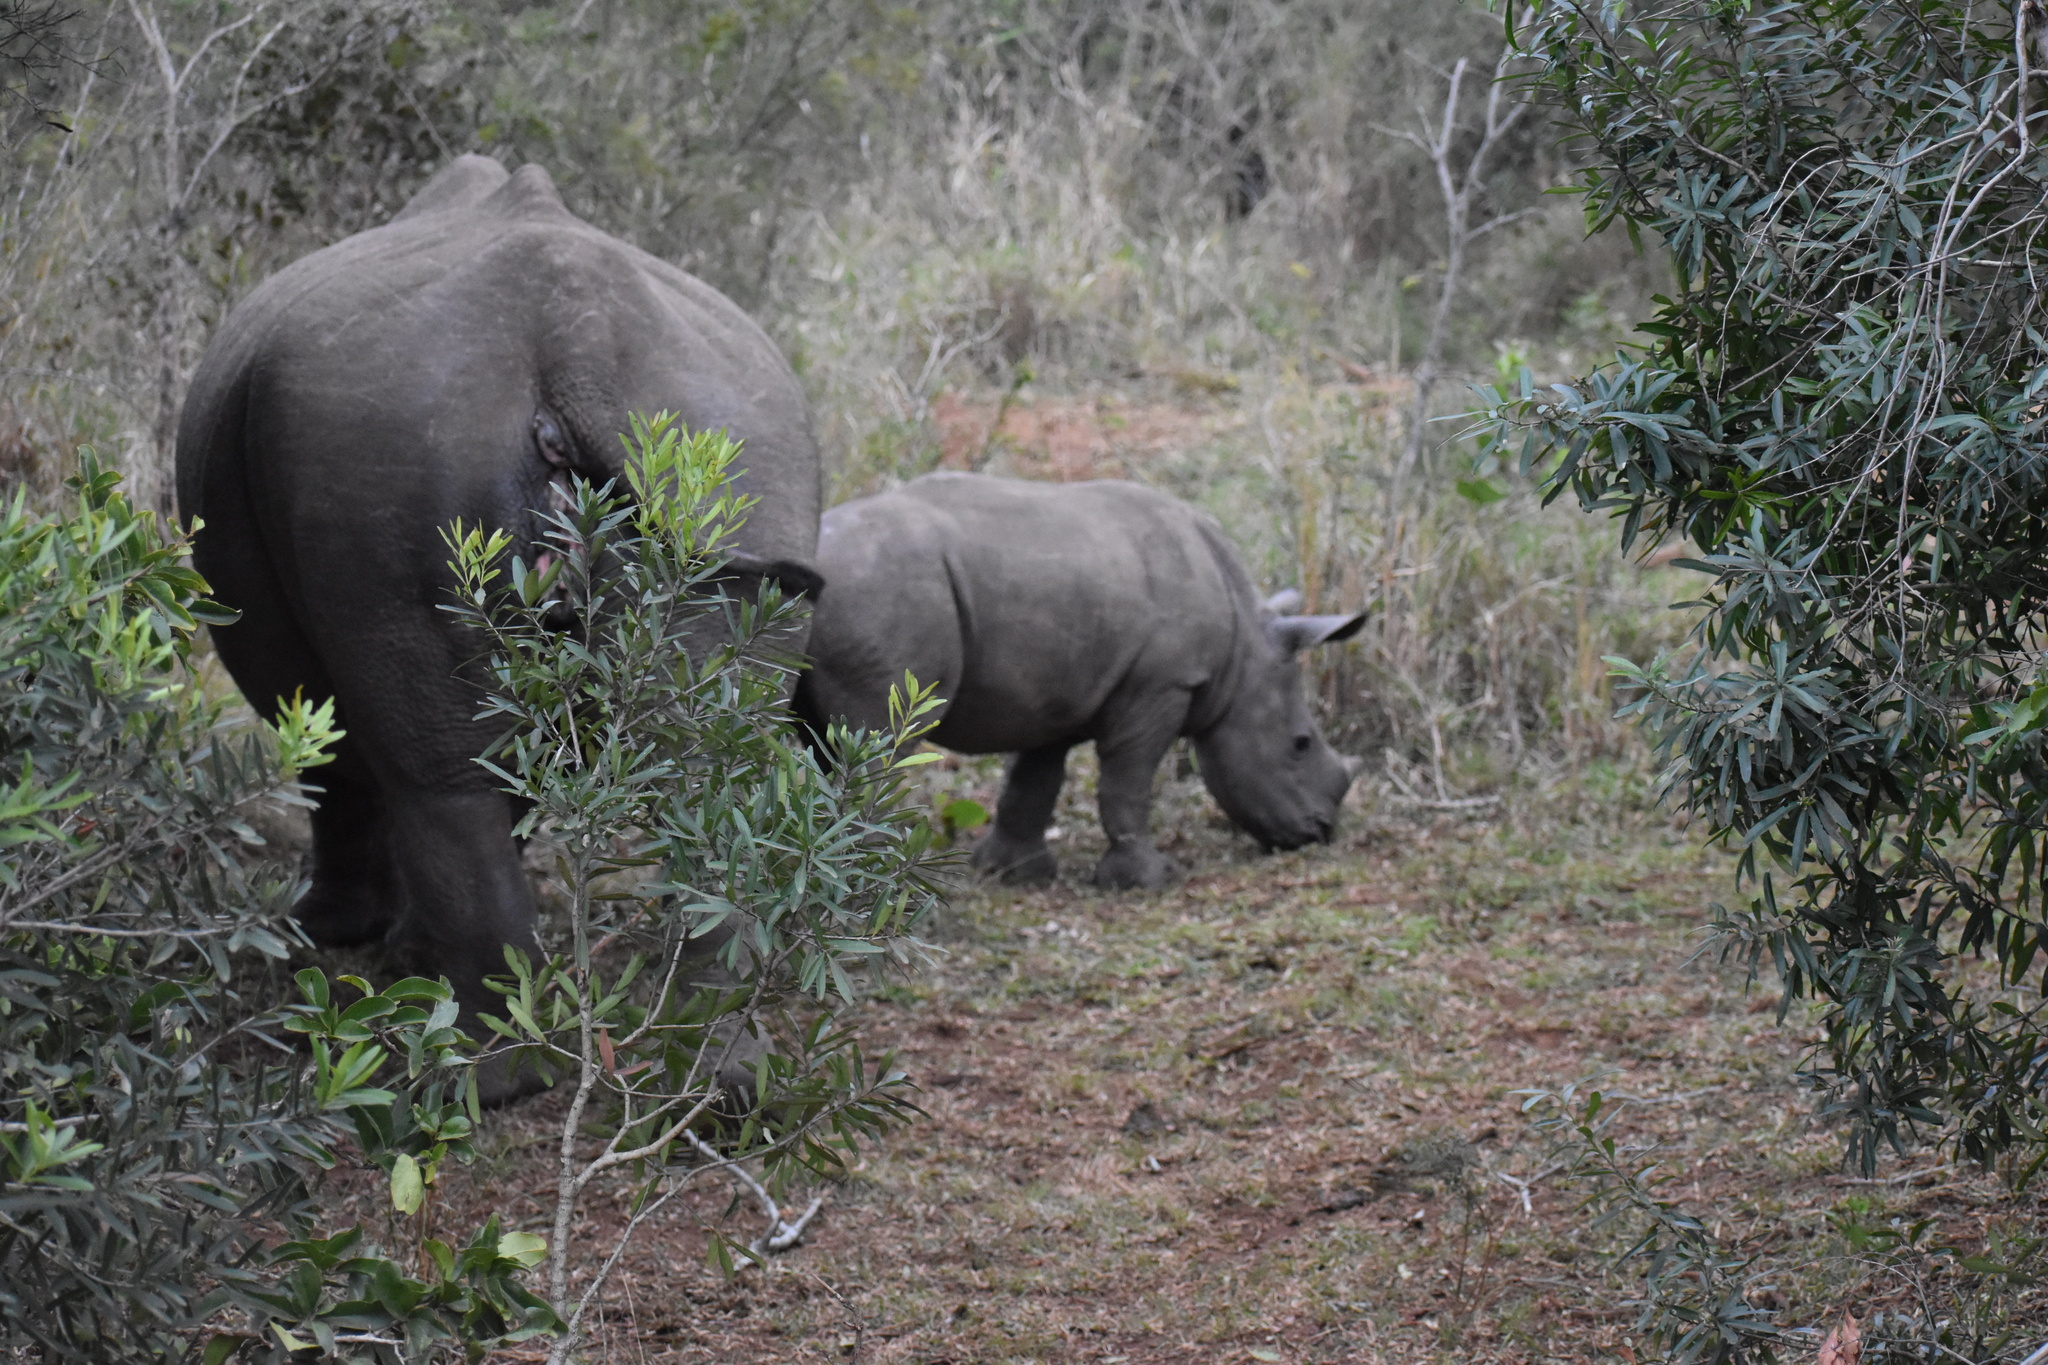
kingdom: Animalia
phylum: Chordata
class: Mammalia
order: Perissodactyla
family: Rhinocerotidae
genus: Ceratotherium
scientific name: Ceratotherium simum
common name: White rhinoceros
